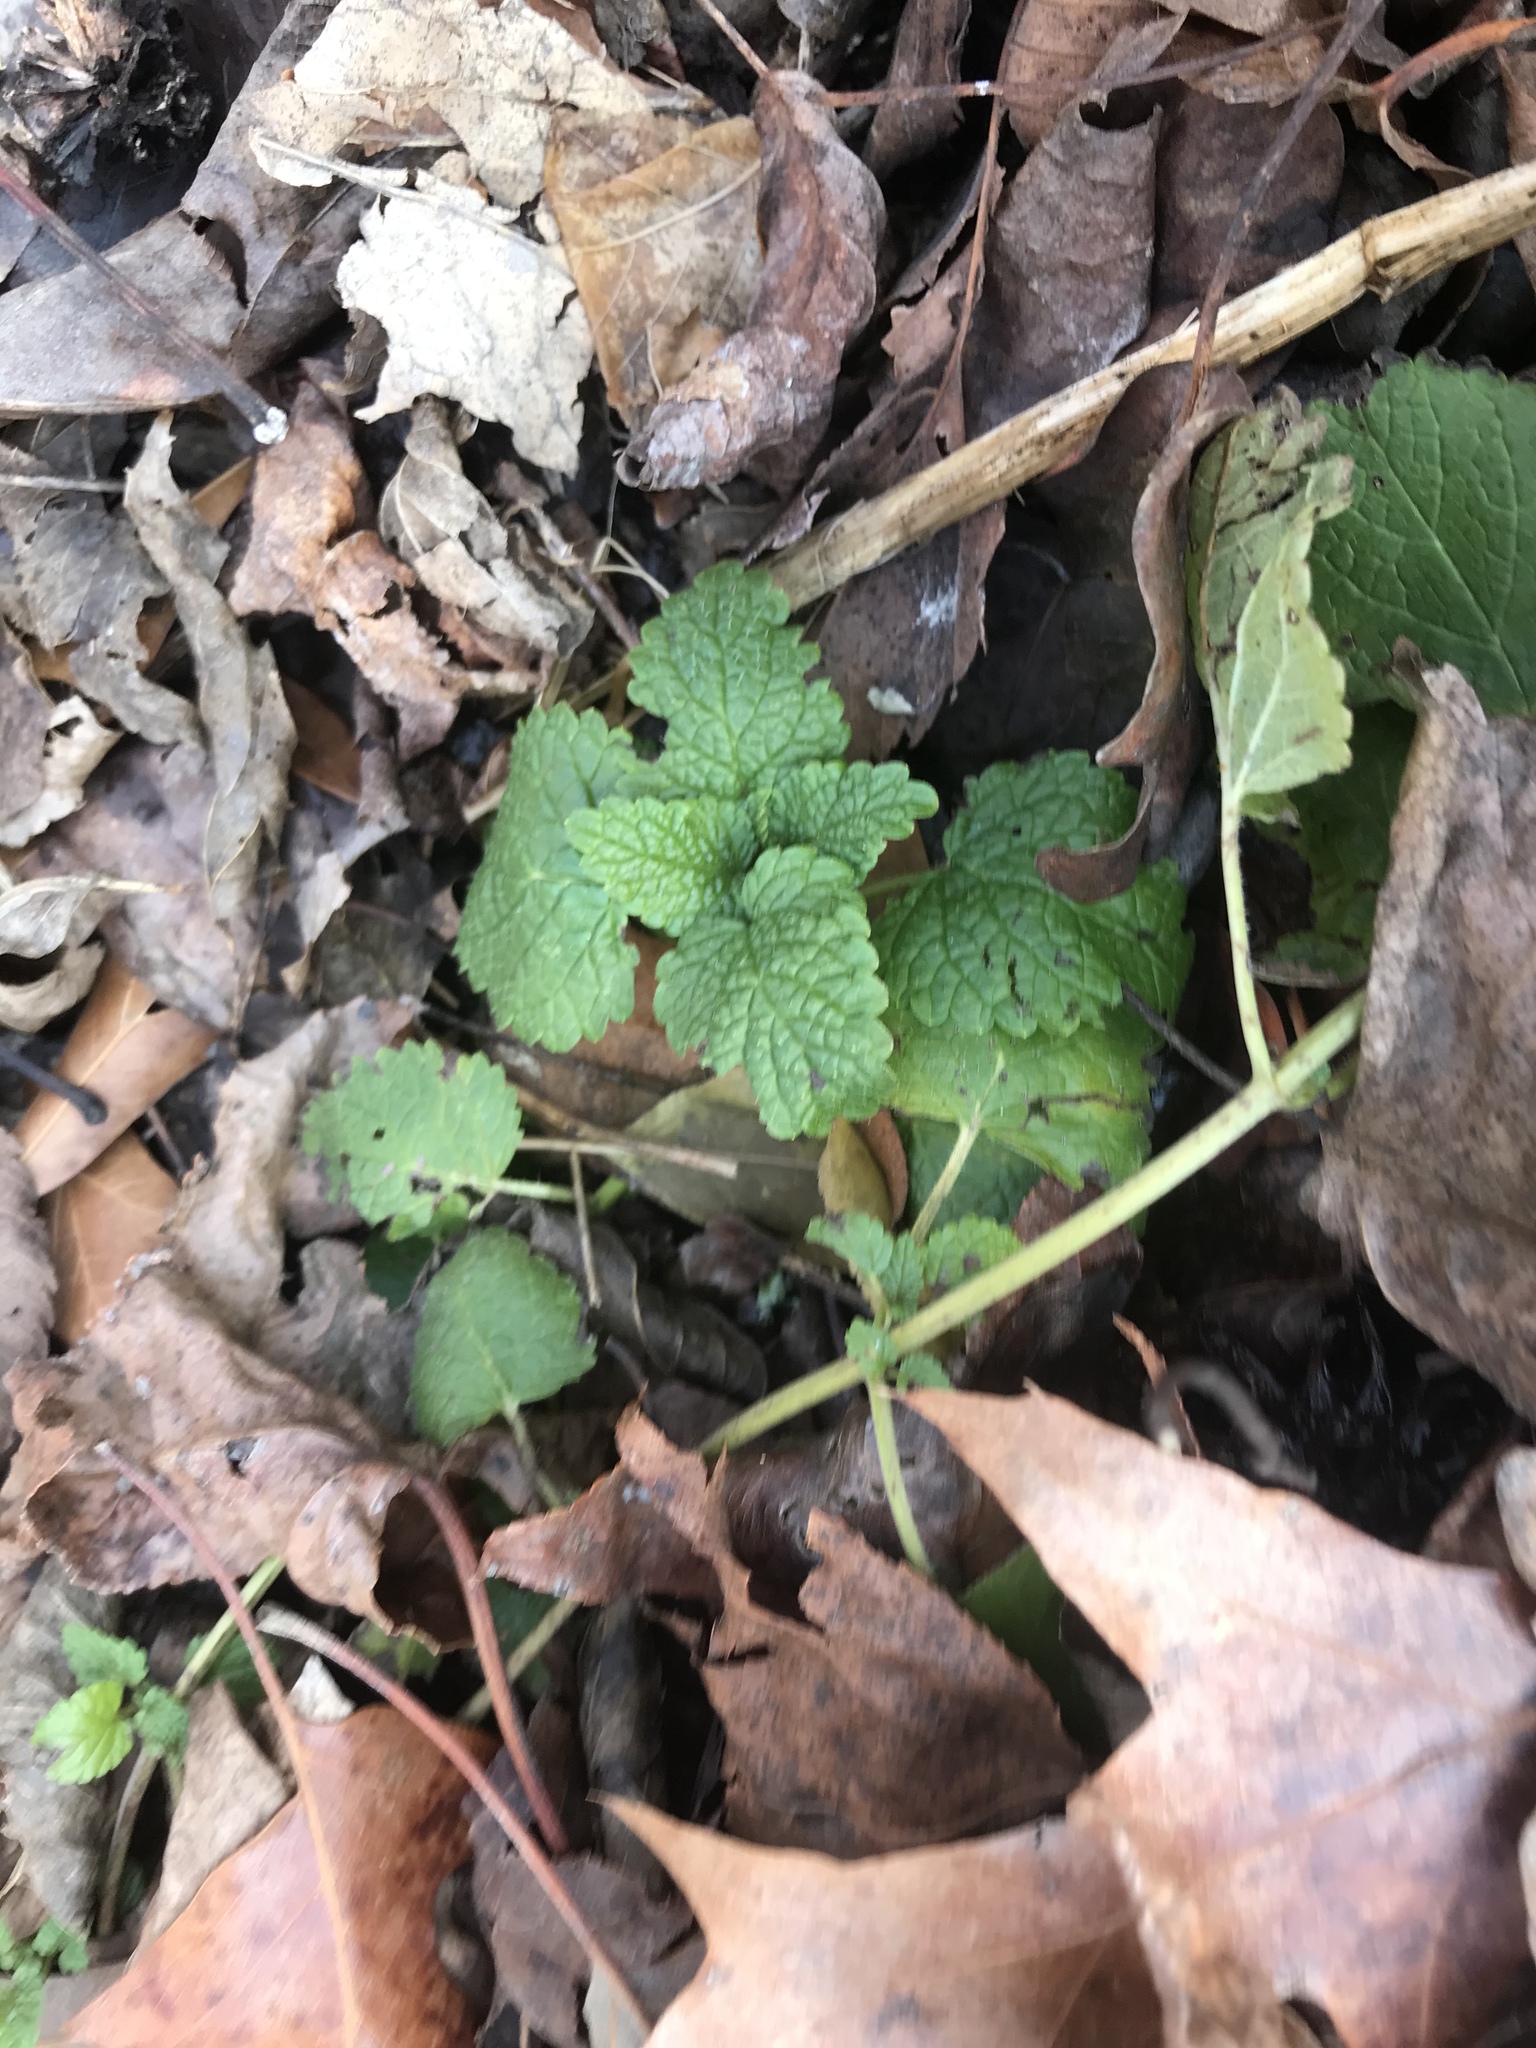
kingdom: Plantae
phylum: Tracheophyta
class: Magnoliopsida
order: Lamiales
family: Lamiaceae
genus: Lamium
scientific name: Lamium purpureum
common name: Red dead-nettle
